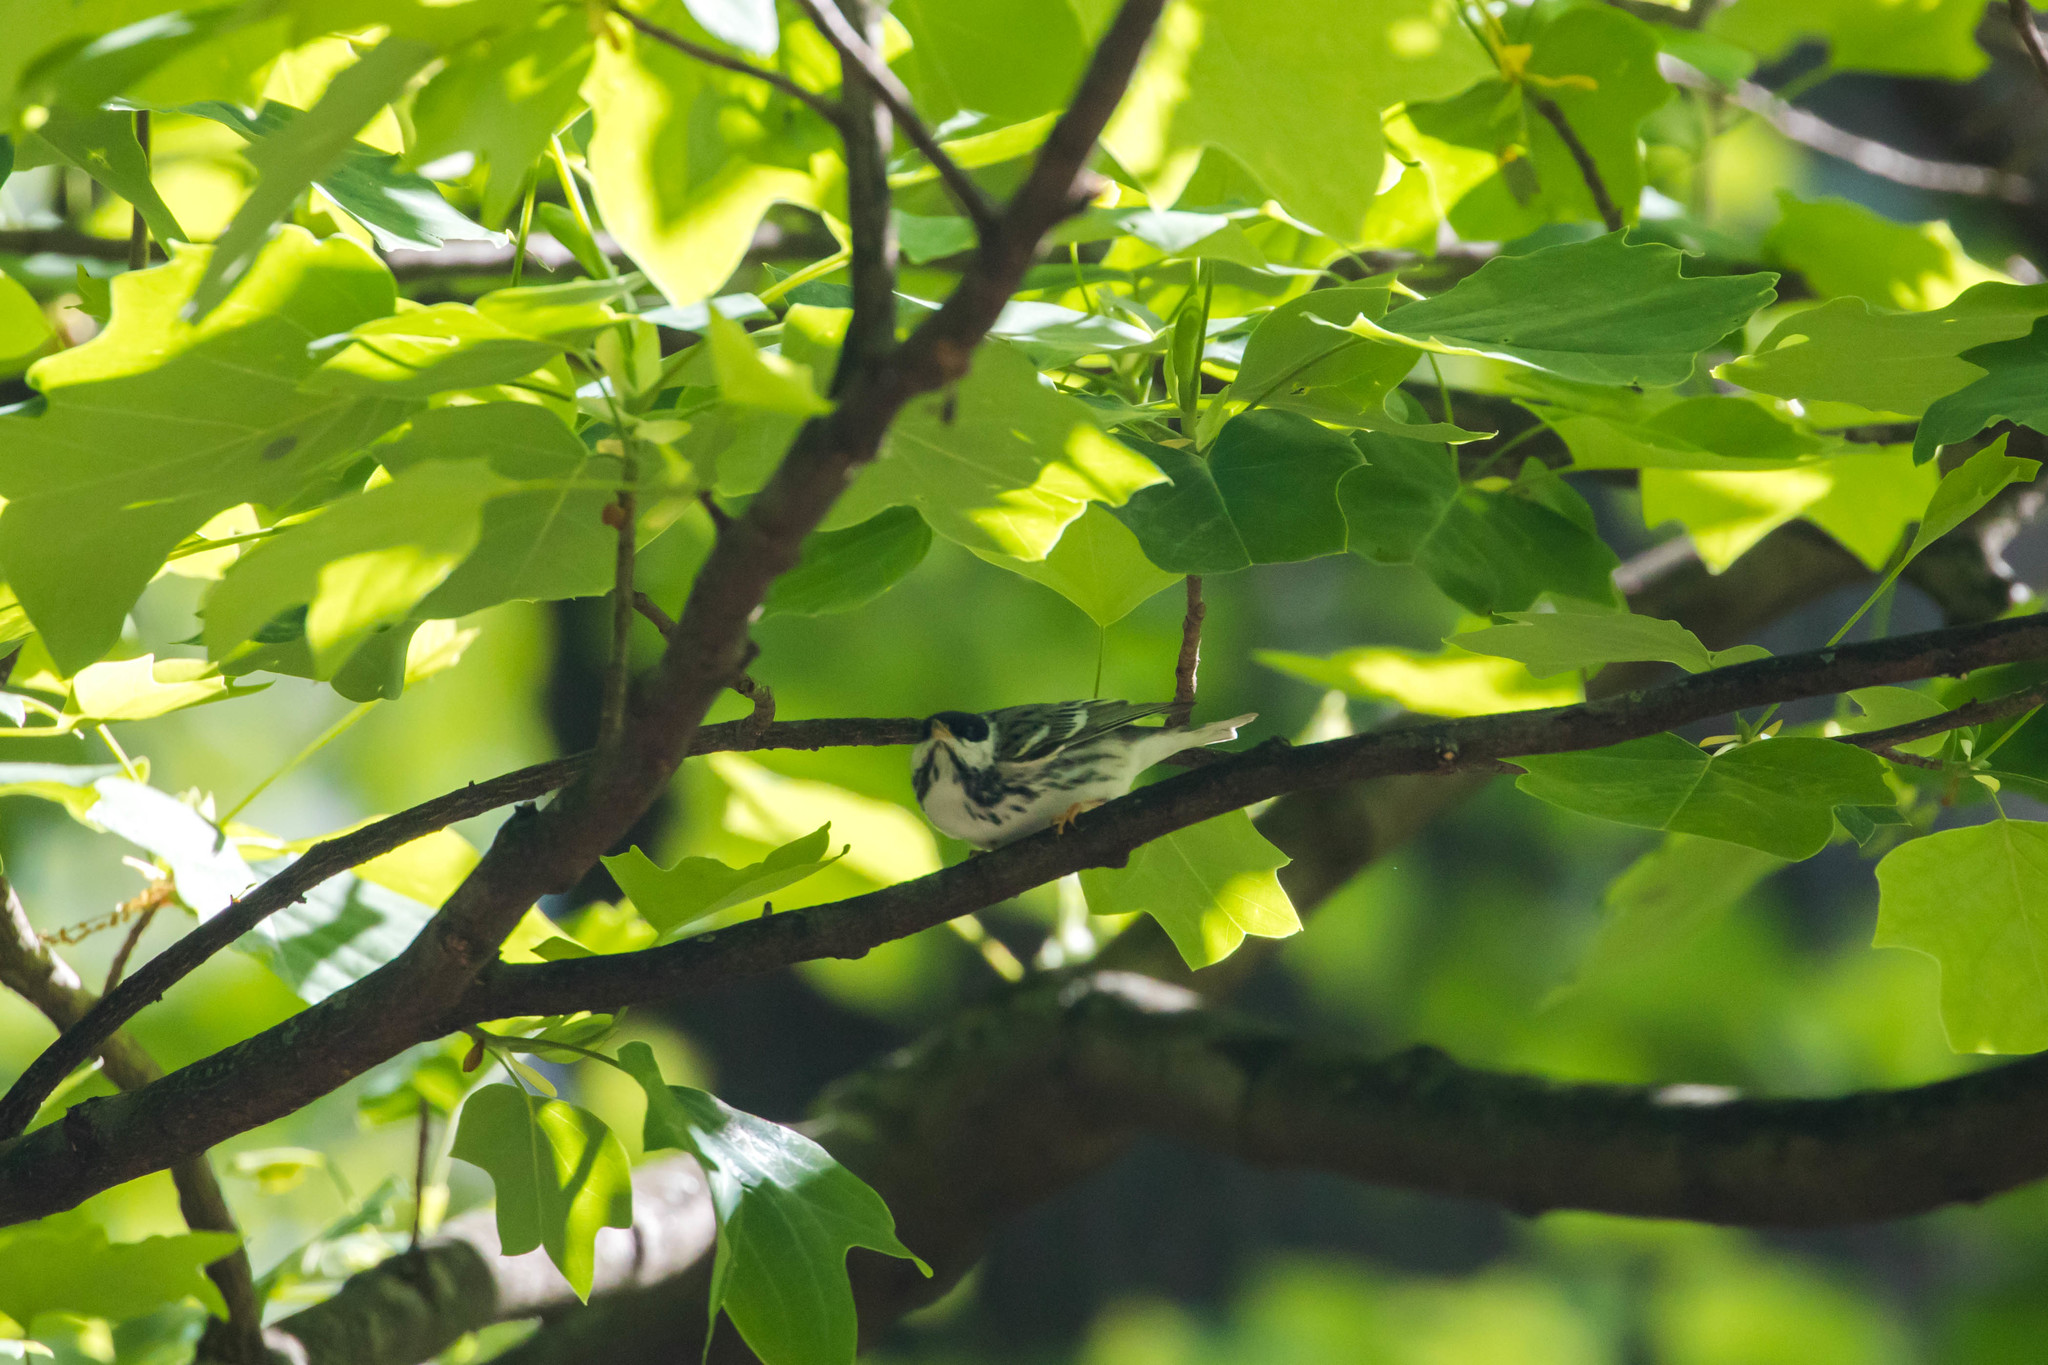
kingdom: Animalia
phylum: Chordata
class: Aves
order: Passeriformes
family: Parulidae
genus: Setophaga
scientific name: Setophaga striata
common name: Blackpoll warbler
